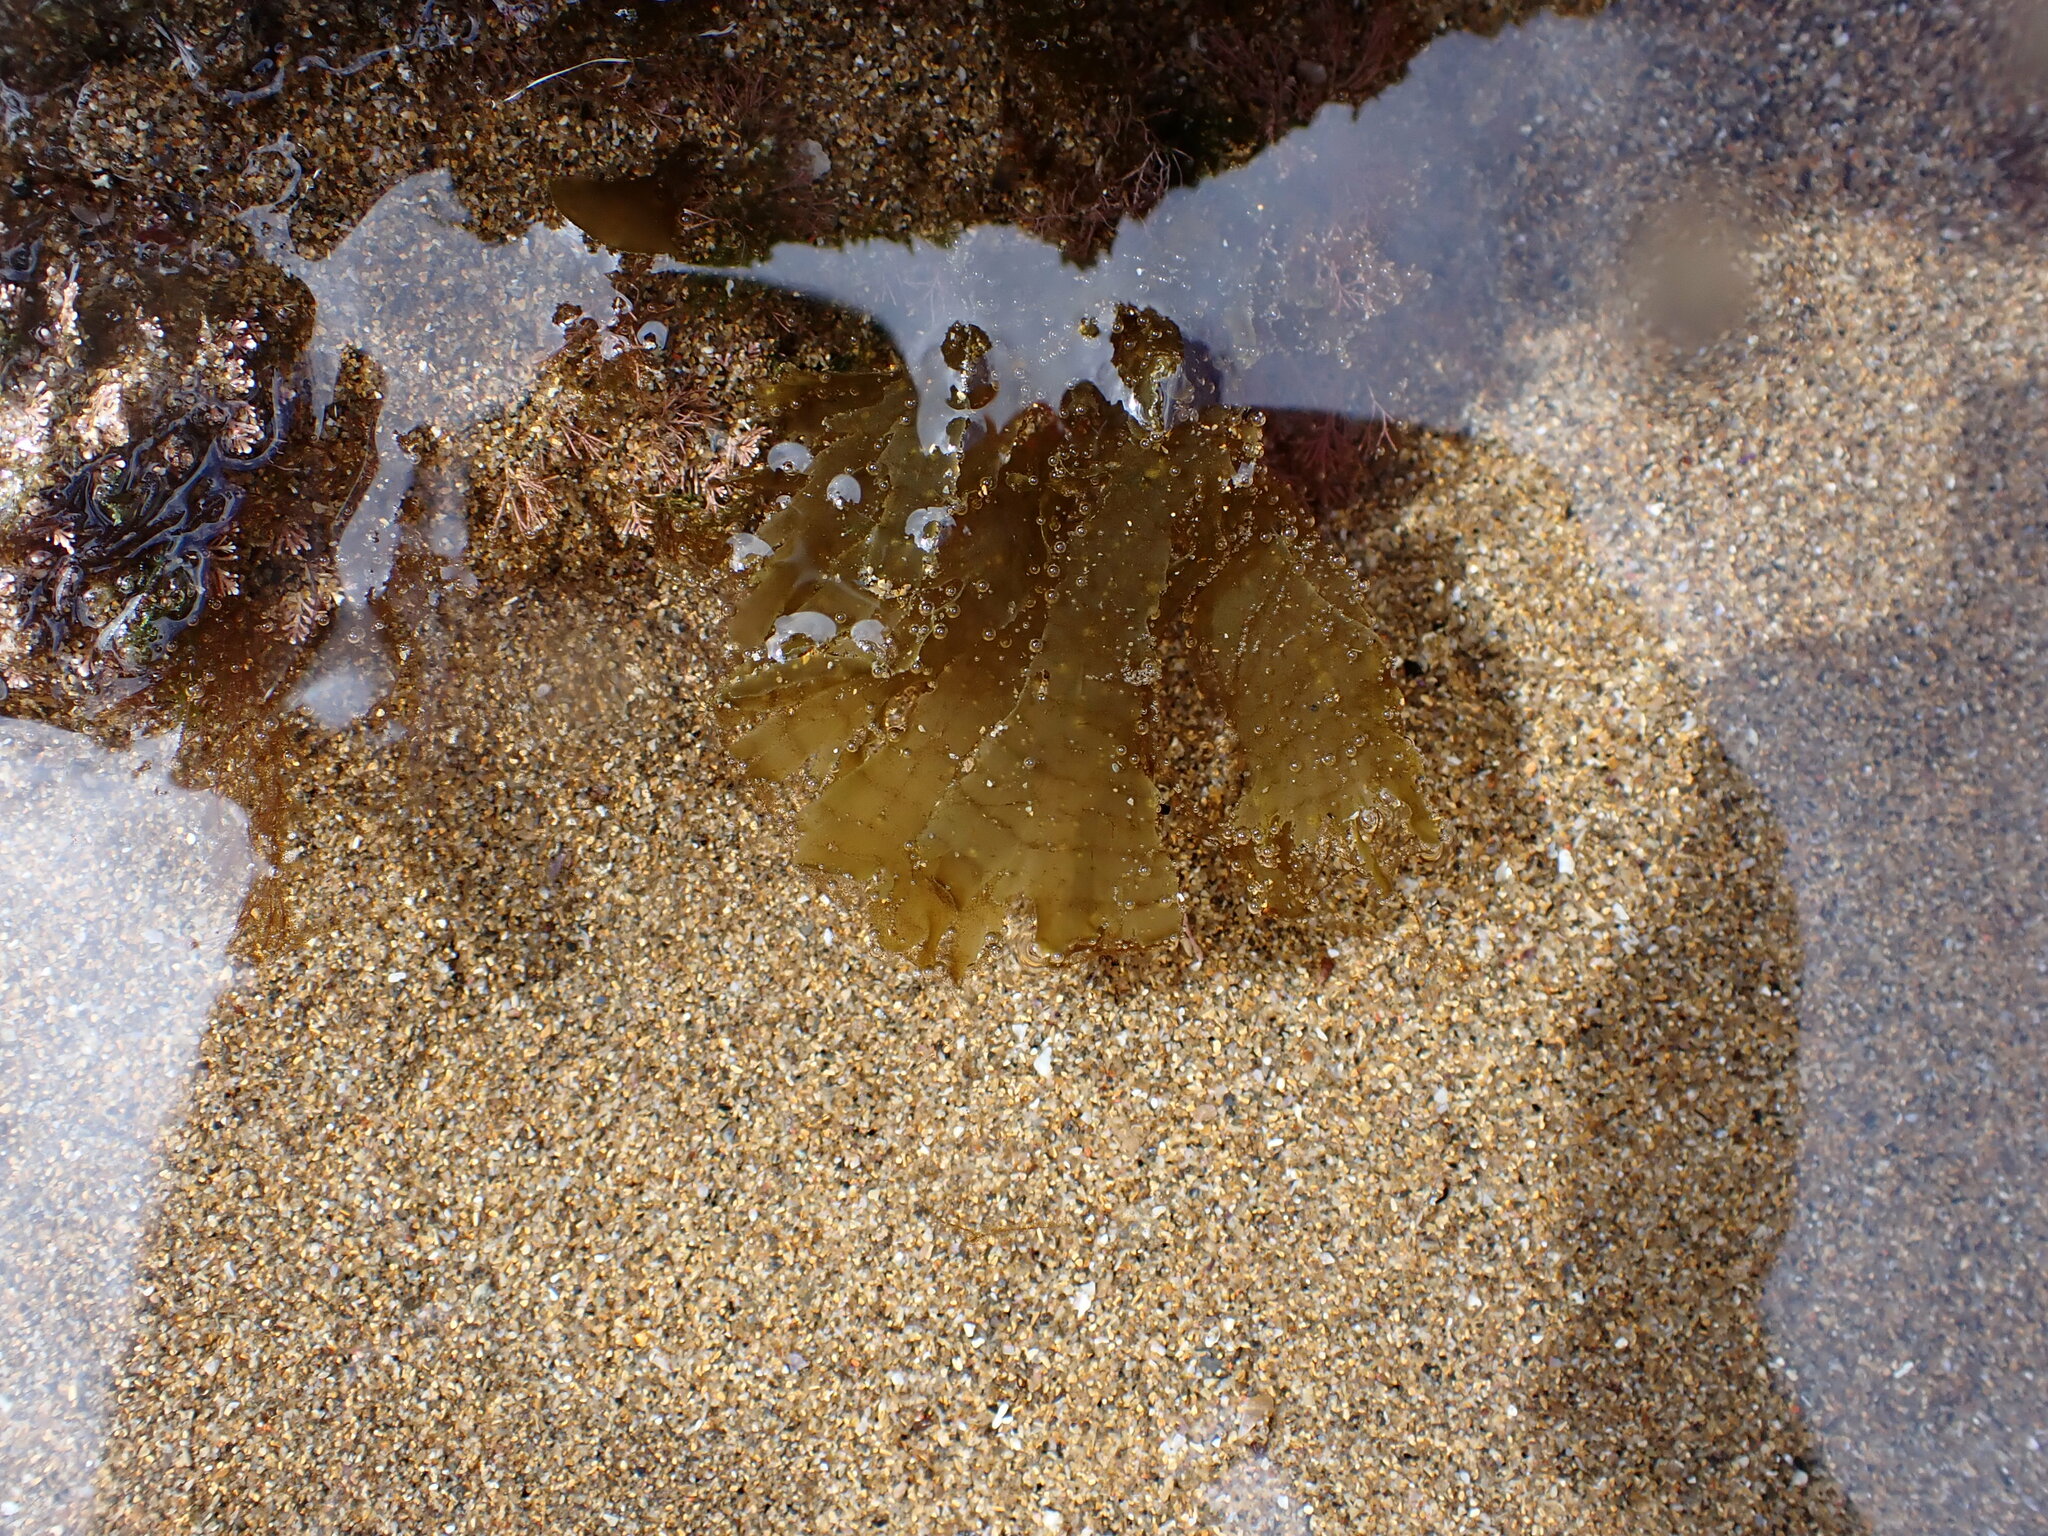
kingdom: Chromista
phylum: Ochrophyta
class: Phaeophyceae
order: Dictyotales
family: Dictyotaceae
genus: Taonia
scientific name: Taonia atomaria
